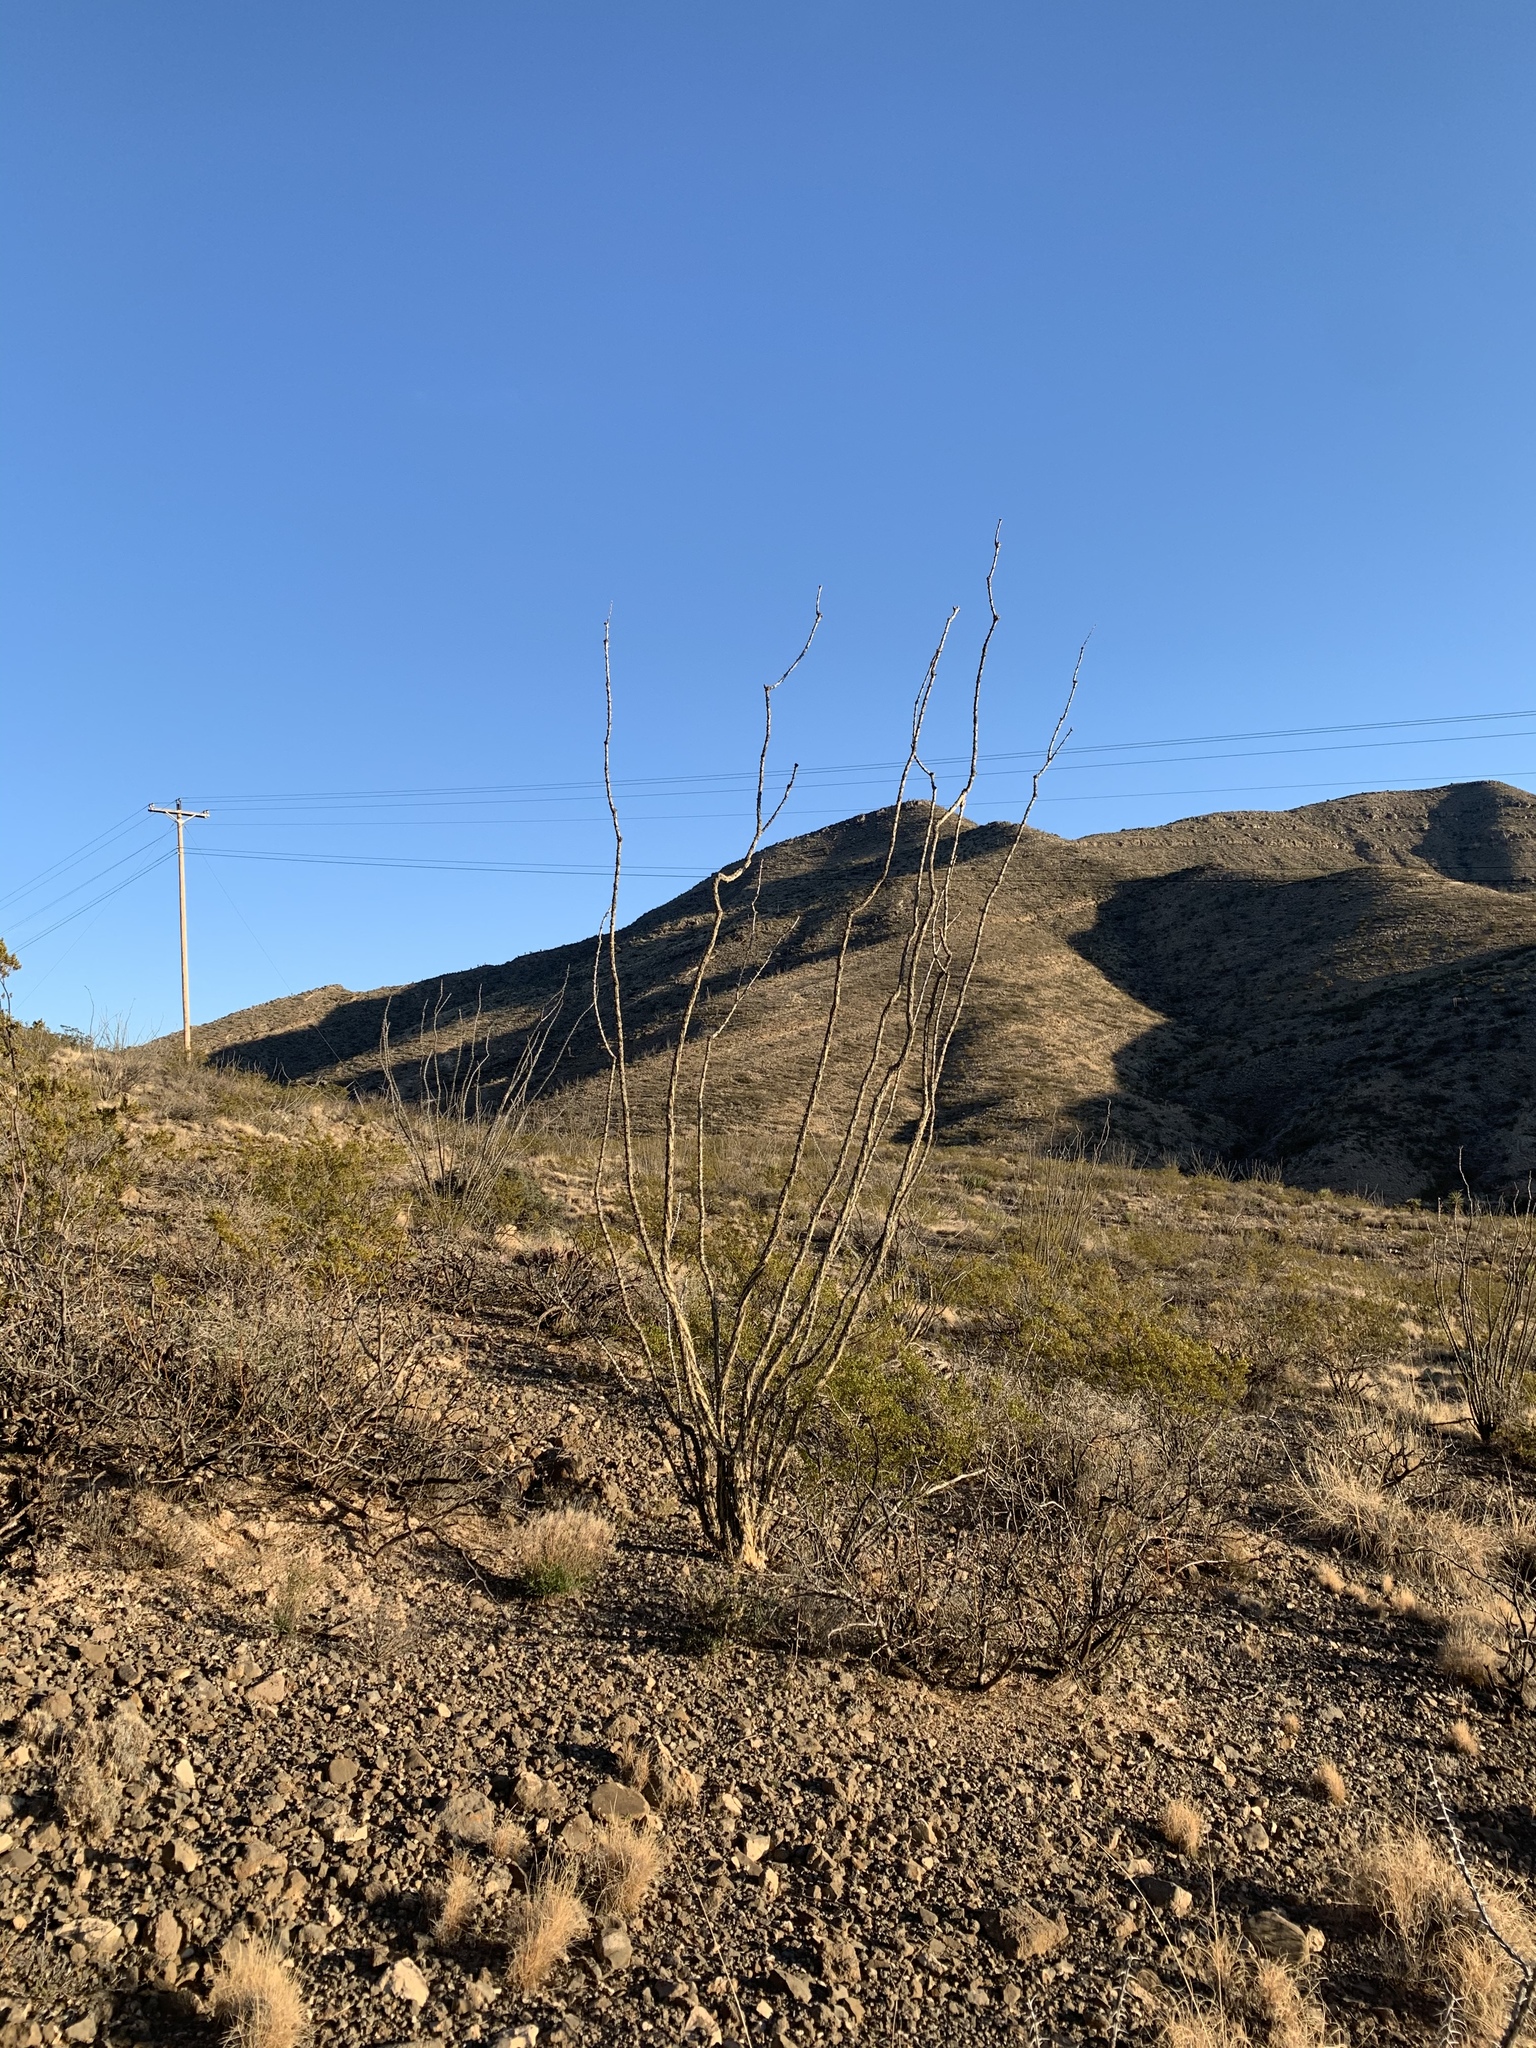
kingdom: Plantae
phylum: Tracheophyta
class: Magnoliopsida
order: Ericales
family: Fouquieriaceae
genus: Fouquieria
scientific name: Fouquieria splendens
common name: Vine-cactus
